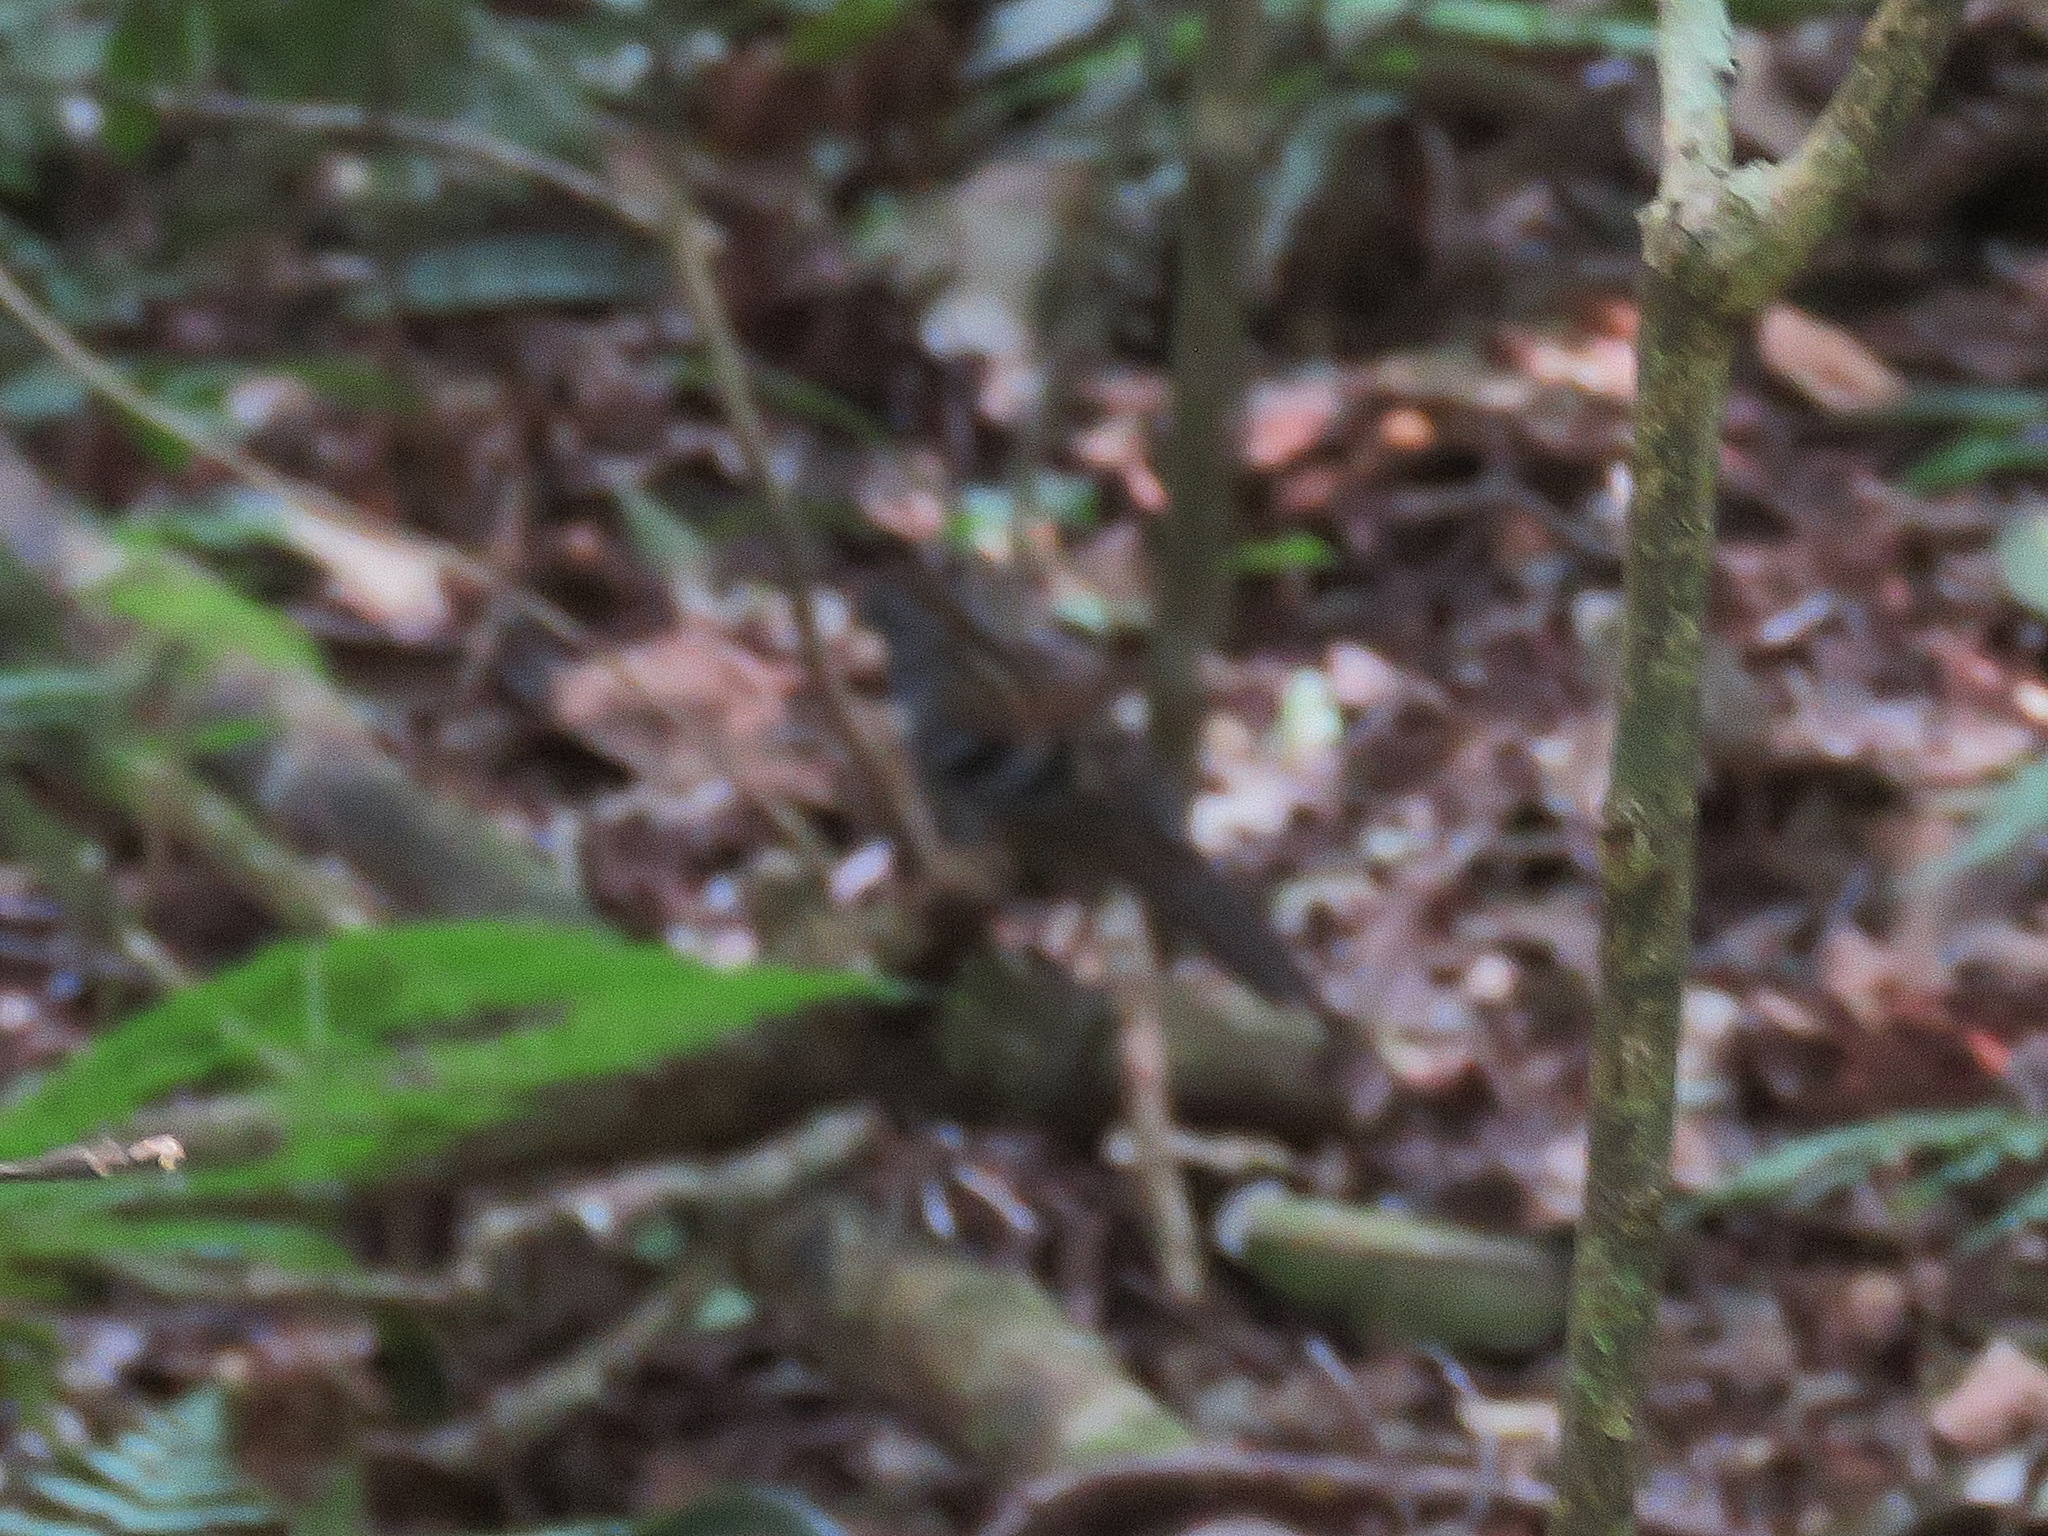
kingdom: Animalia
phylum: Chordata
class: Aves
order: Passeriformes
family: Orthonychidae
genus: Orthonyx
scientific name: Orthonyx temminckii
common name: Australian logrunner
